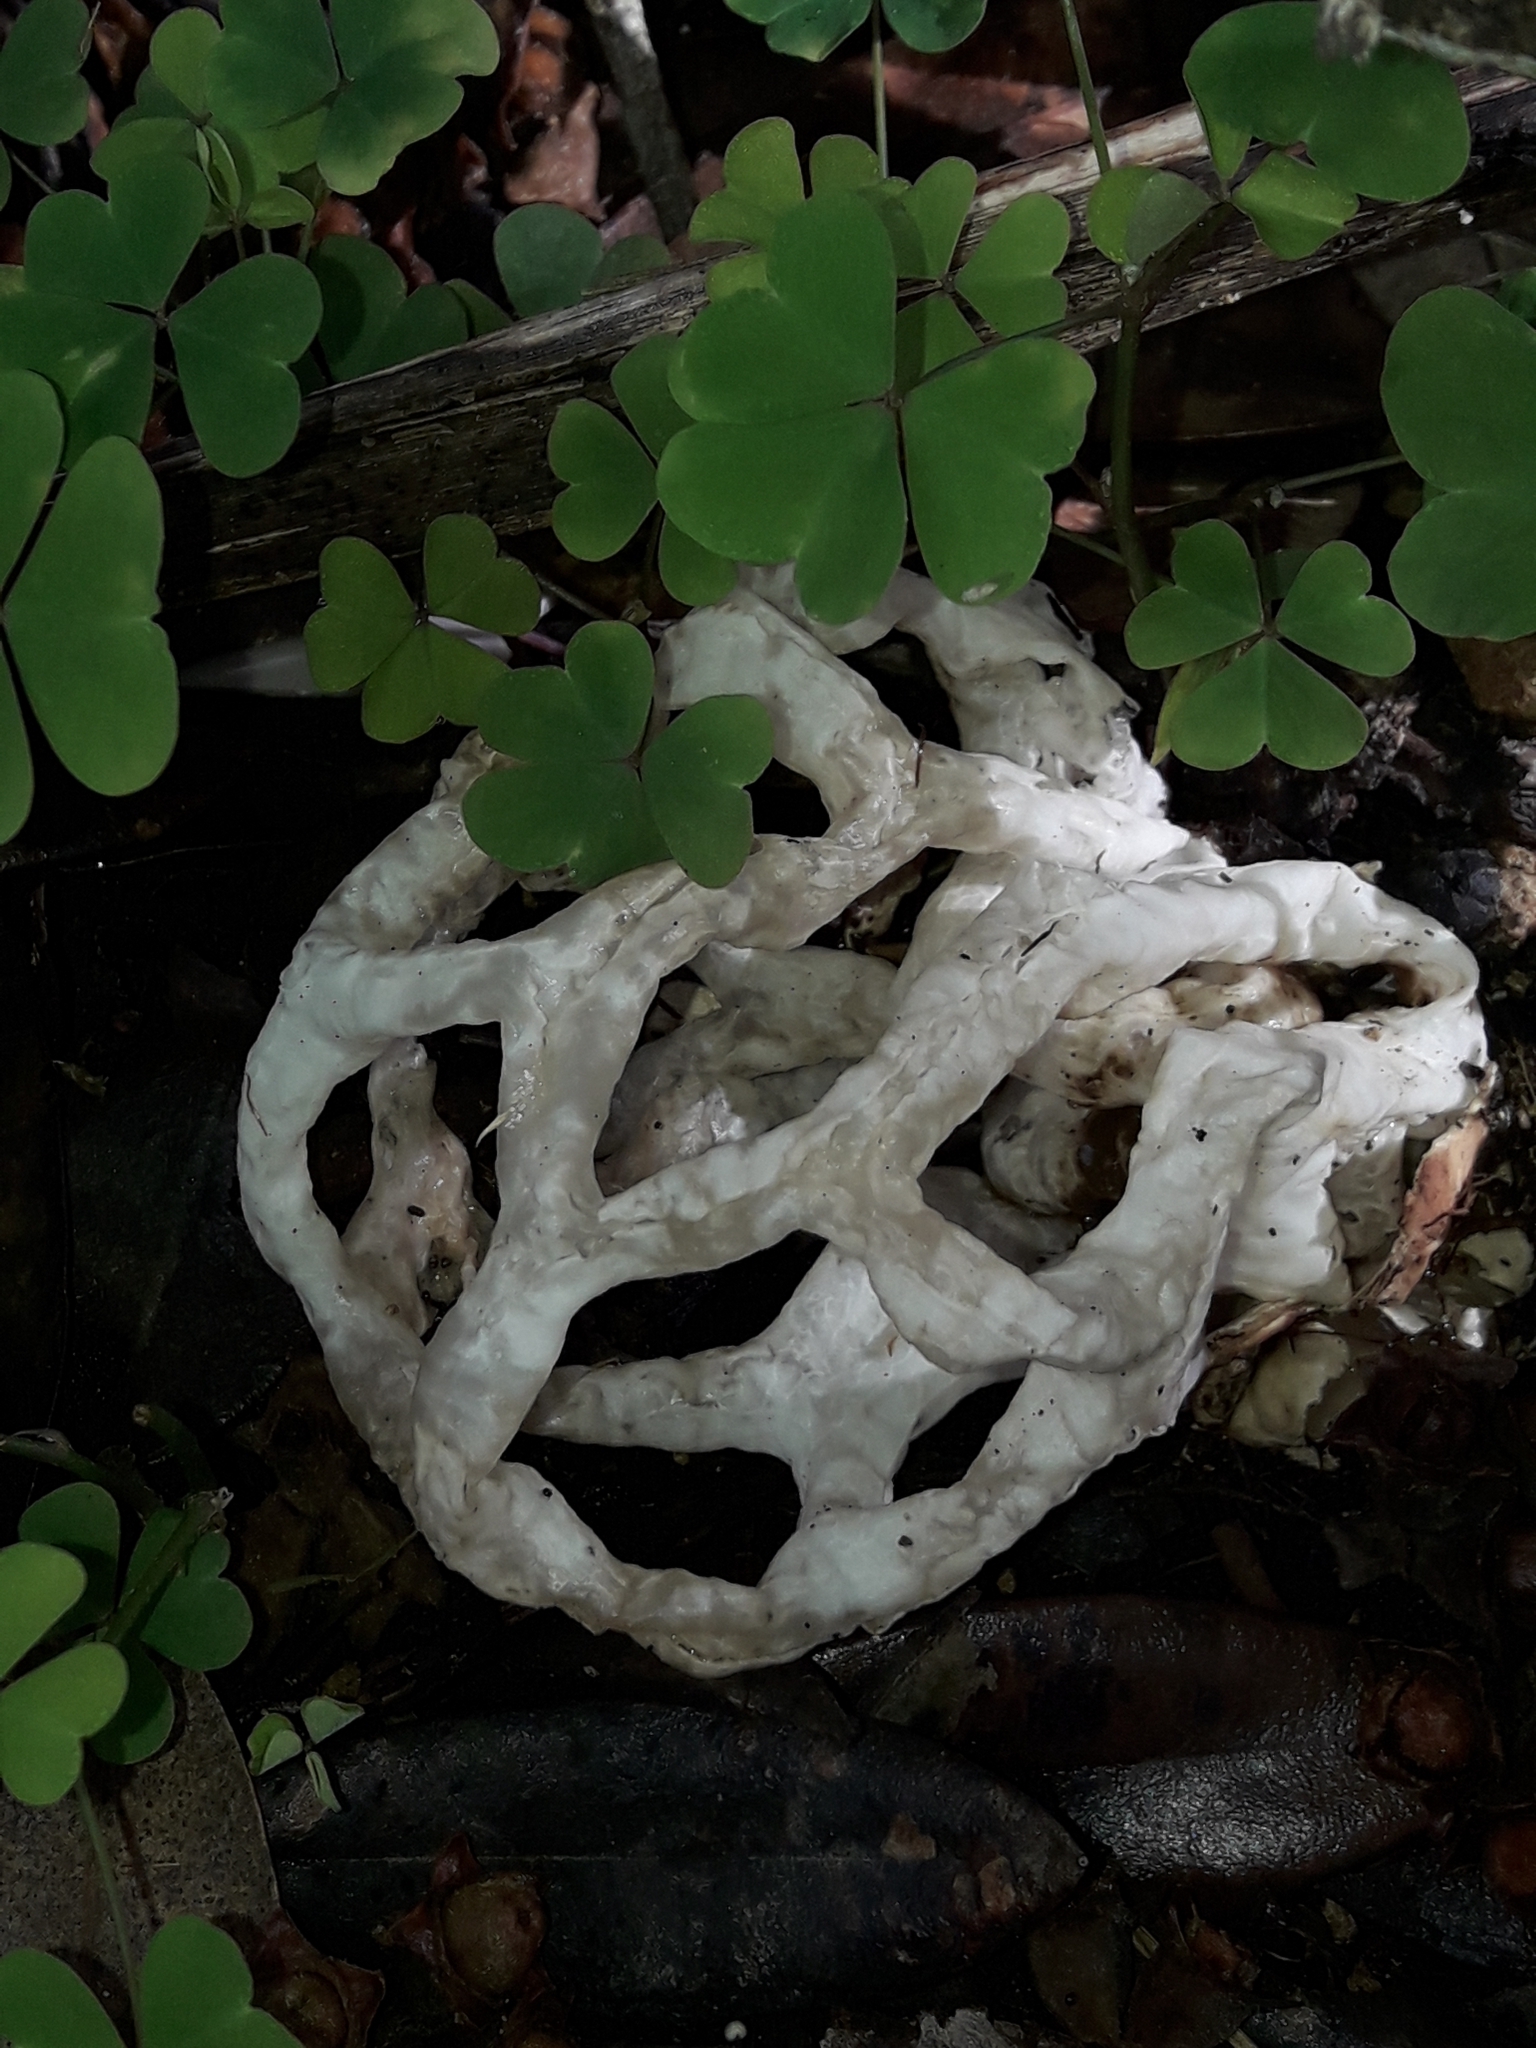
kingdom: Fungi
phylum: Basidiomycota
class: Agaricomycetes
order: Phallales
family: Phallaceae
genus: Ileodictyon
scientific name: Ileodictyon cibarium
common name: Basket fungus
